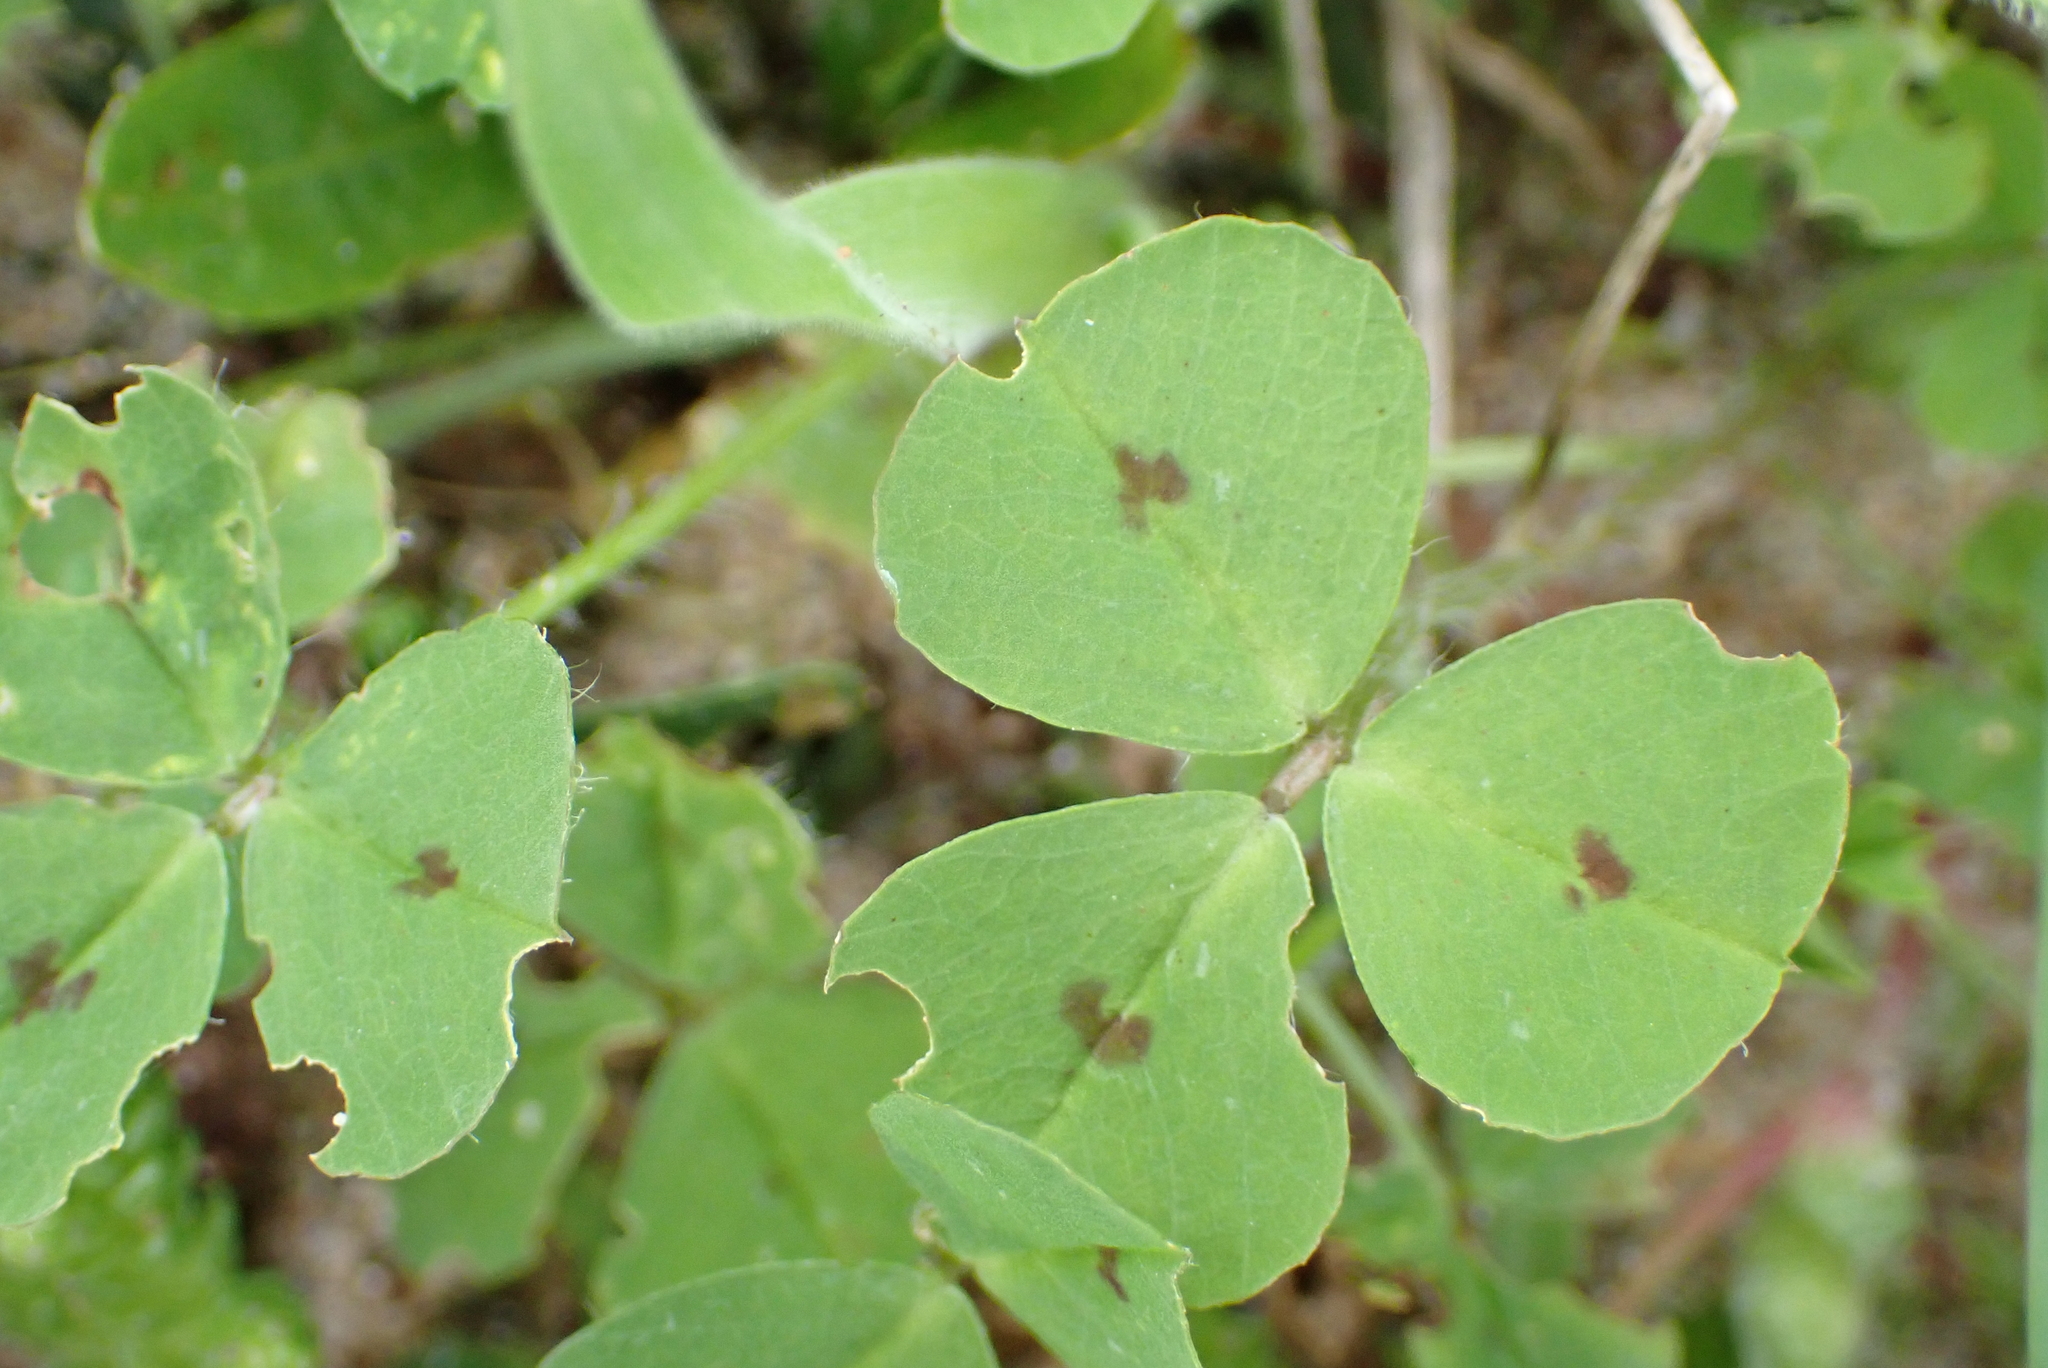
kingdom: Plantae
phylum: Tracheophyta
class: Magnoliopsida
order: Fabales
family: Fabaceae
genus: Medicago
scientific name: Medicago arabica
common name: Spotted medick
